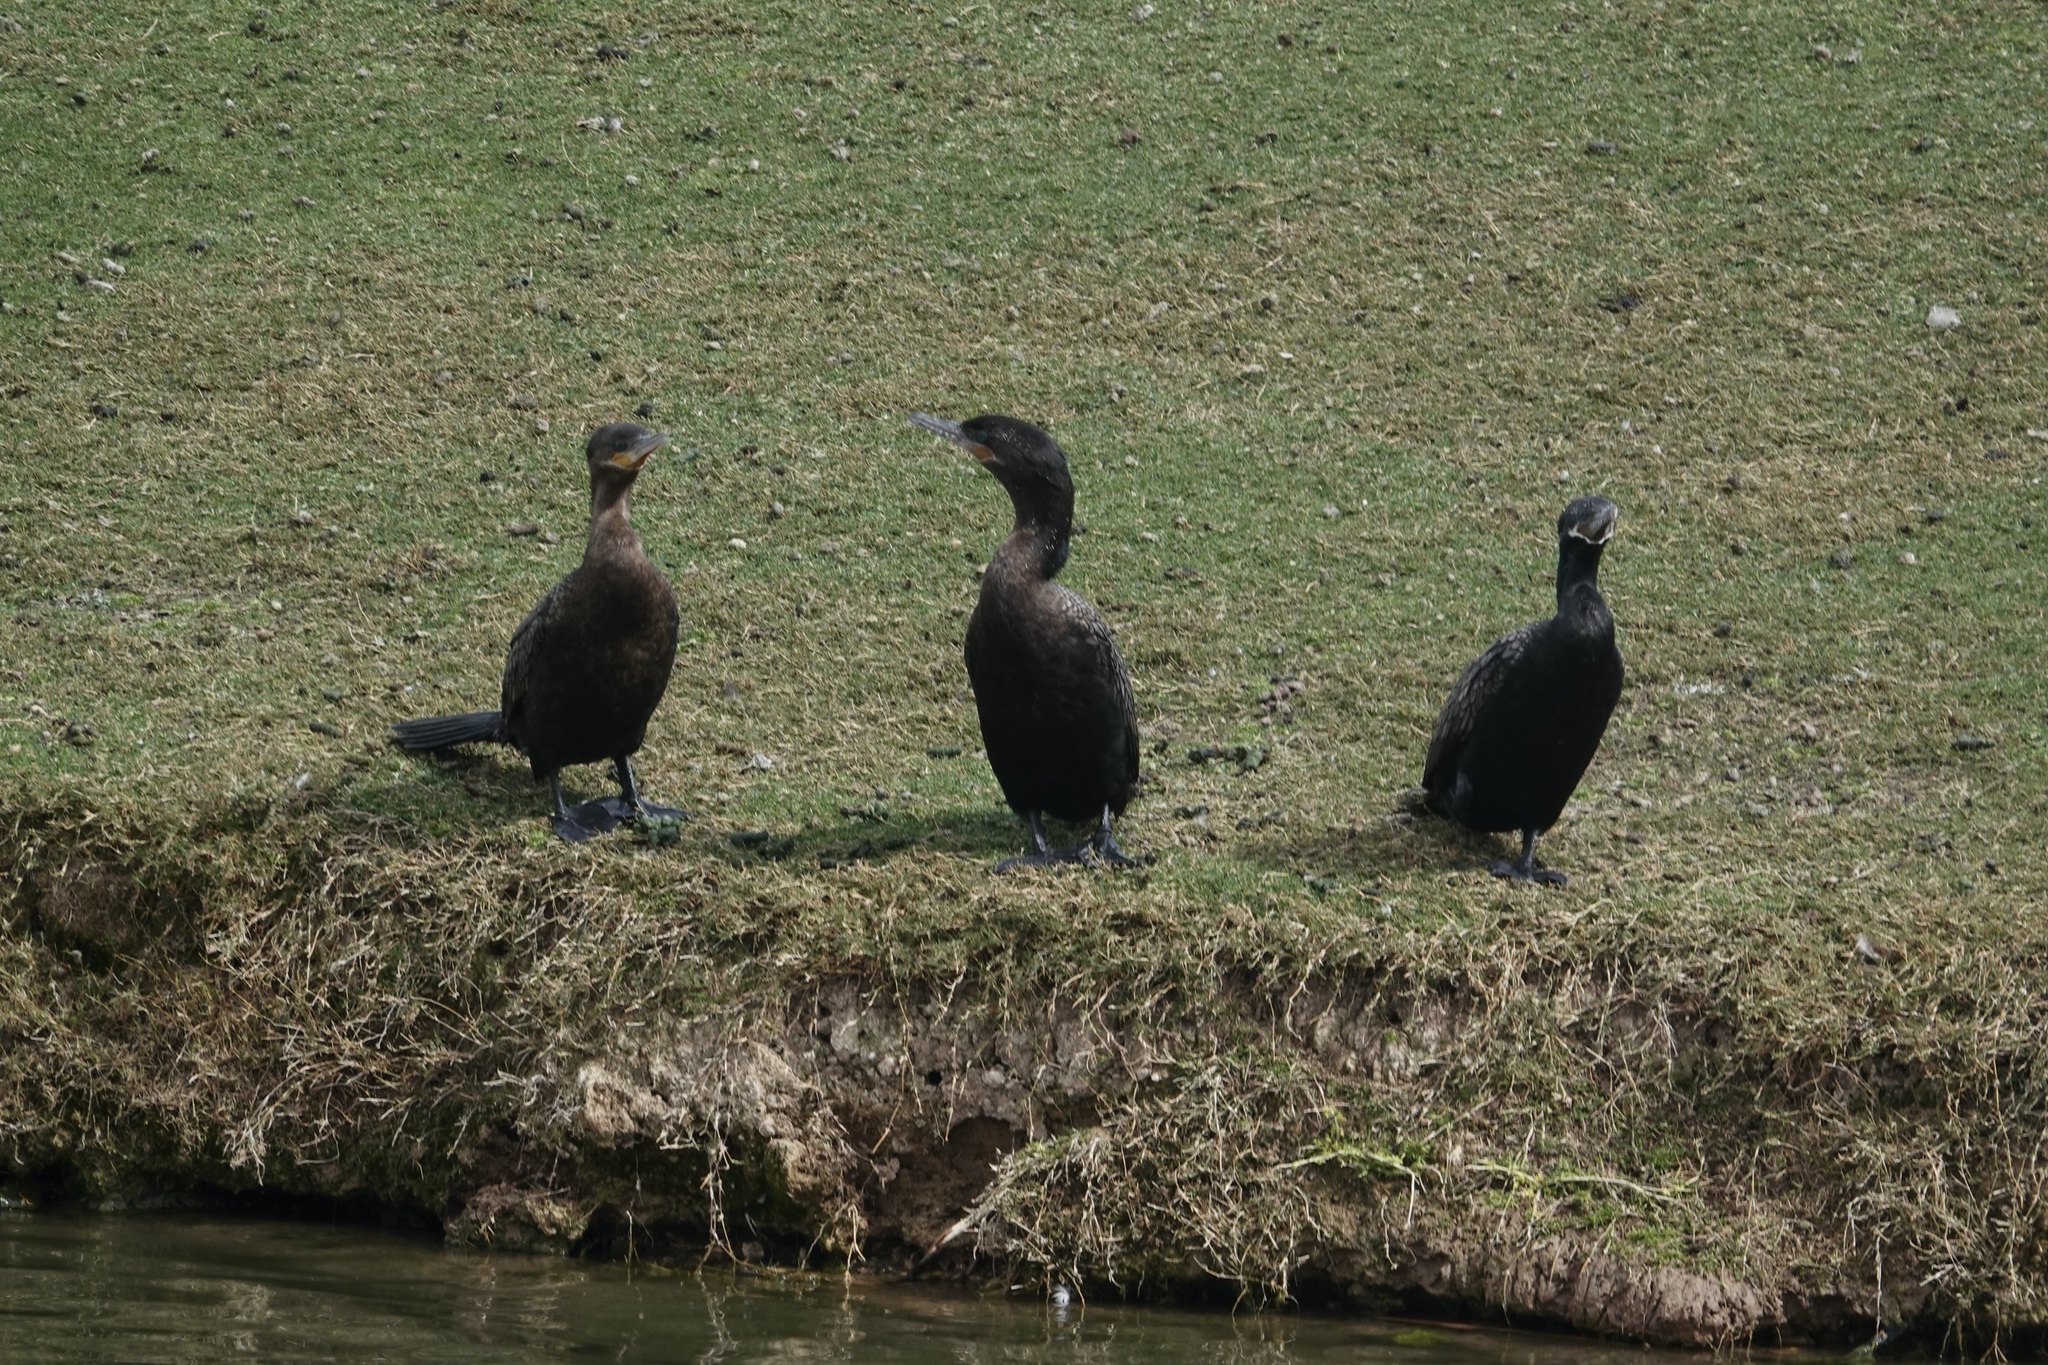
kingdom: Animalia
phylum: Chordata
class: Aves
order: Suliformes
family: Phalacrocoracidae
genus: Phalacrocorax
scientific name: Phalacrocorax brasilianus
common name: Neotropic cormorant
